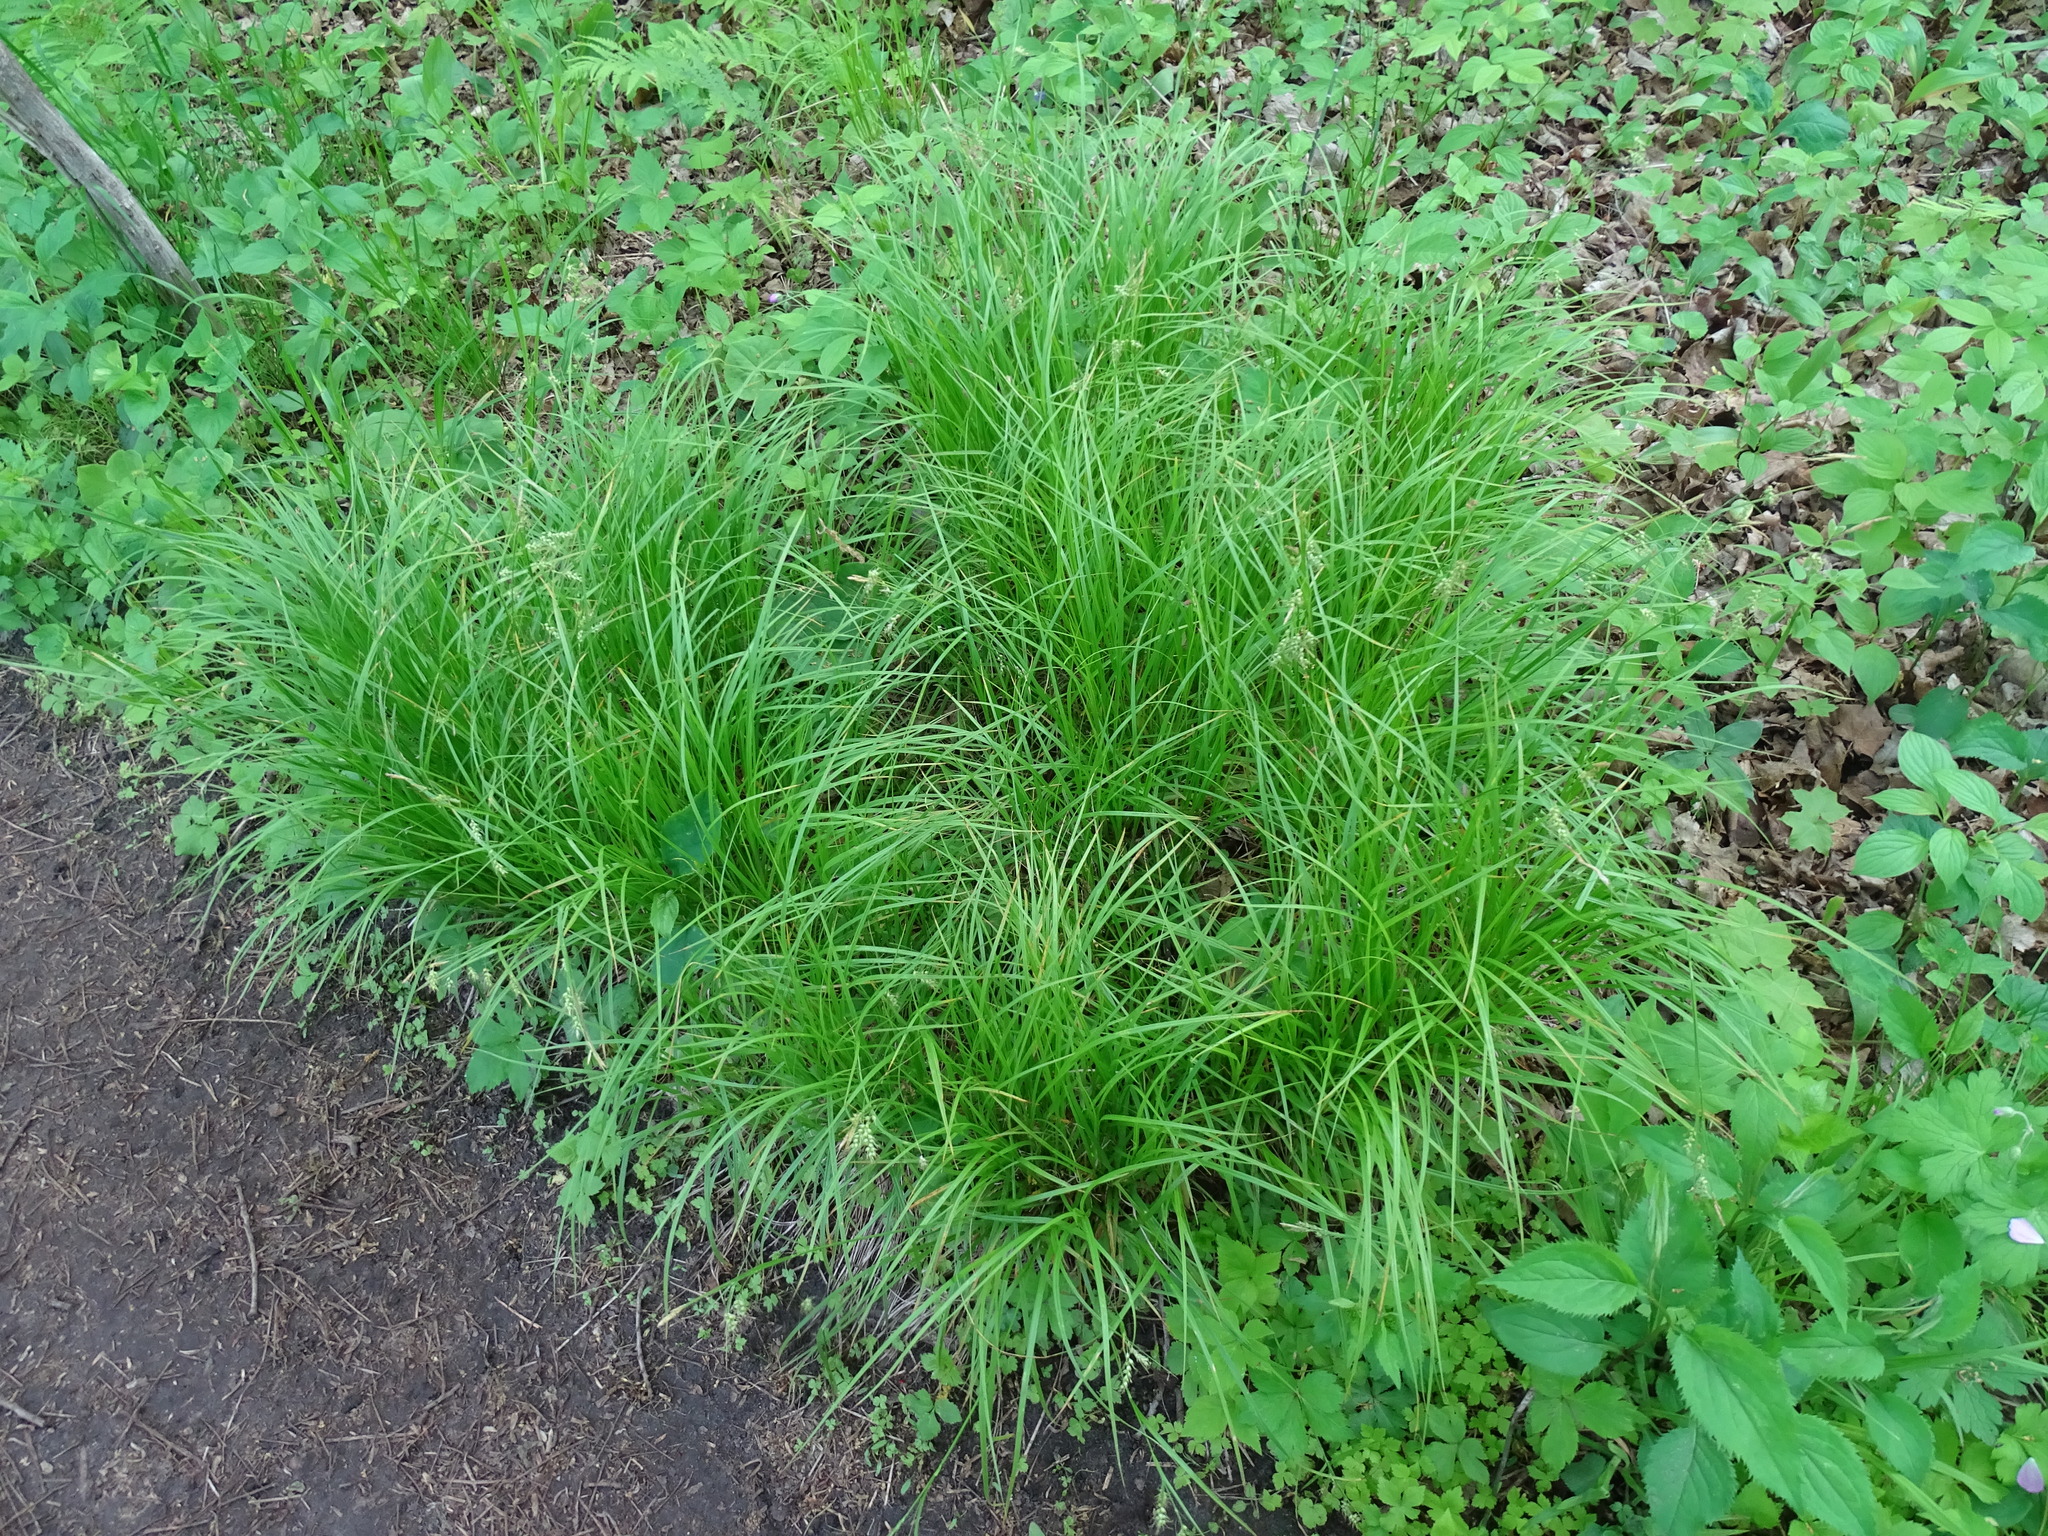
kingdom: Plantae
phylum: Tracheophyta
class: Liliopsida
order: Poales
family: Cyperaceae
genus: Carex
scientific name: Carex sprengelii
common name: Long-beaked sedge
